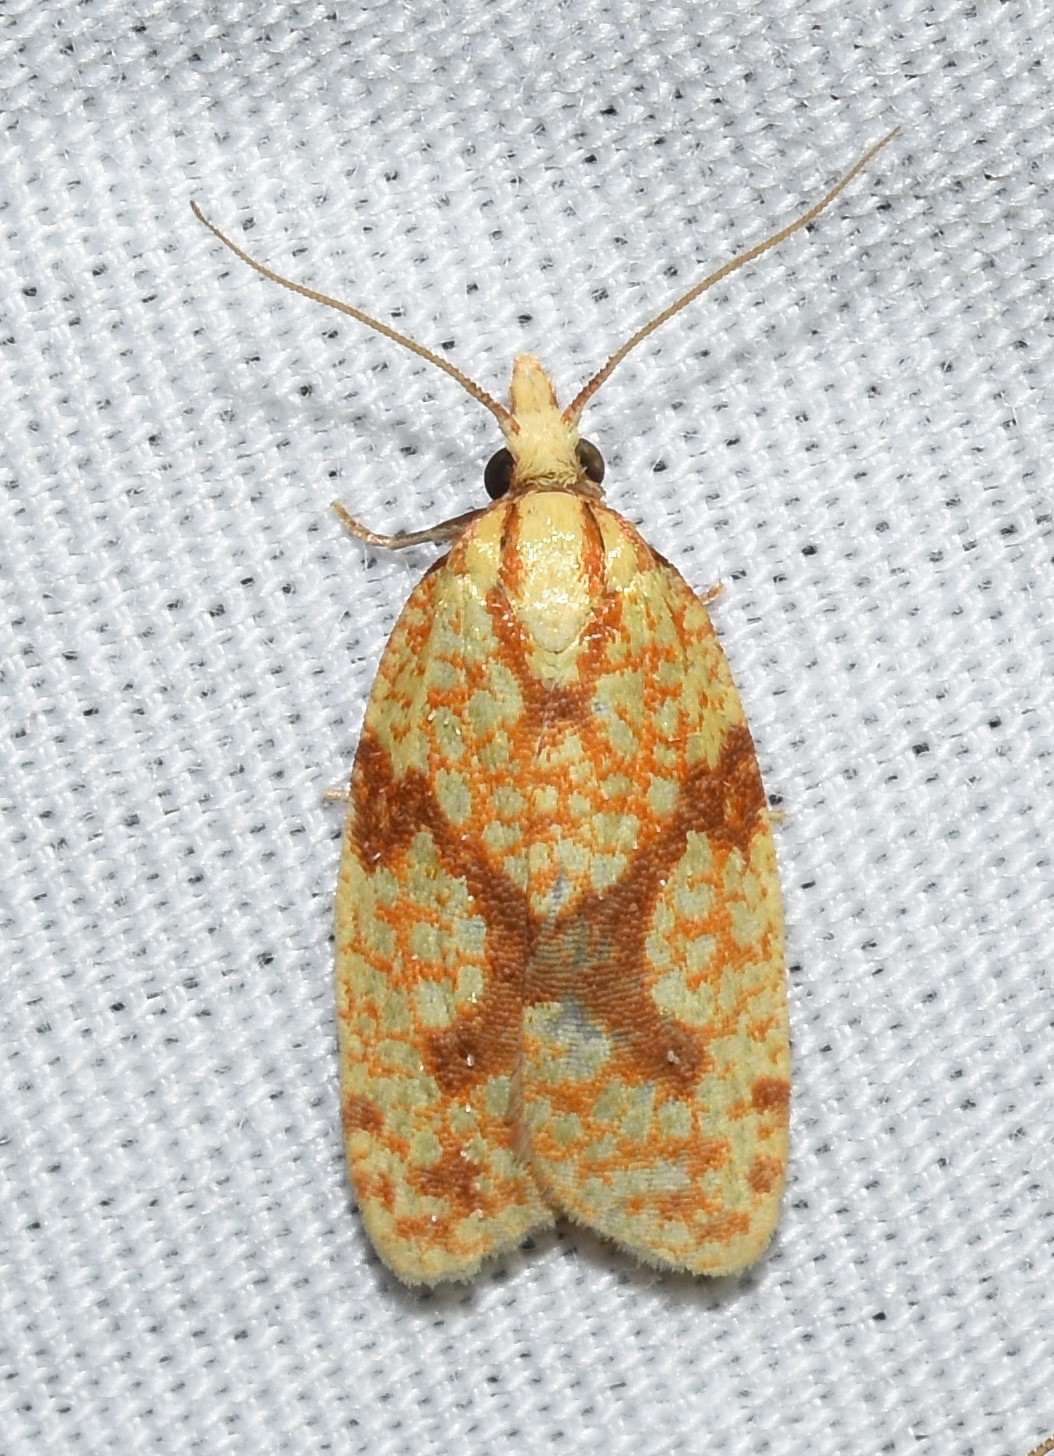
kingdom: Animalia
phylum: Arthropoda
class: Insecta
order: Lepidoptera
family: Tortricidae
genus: Sparganothis
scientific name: Sparganothis sulfureana
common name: Sparganothis fruitworm moth
